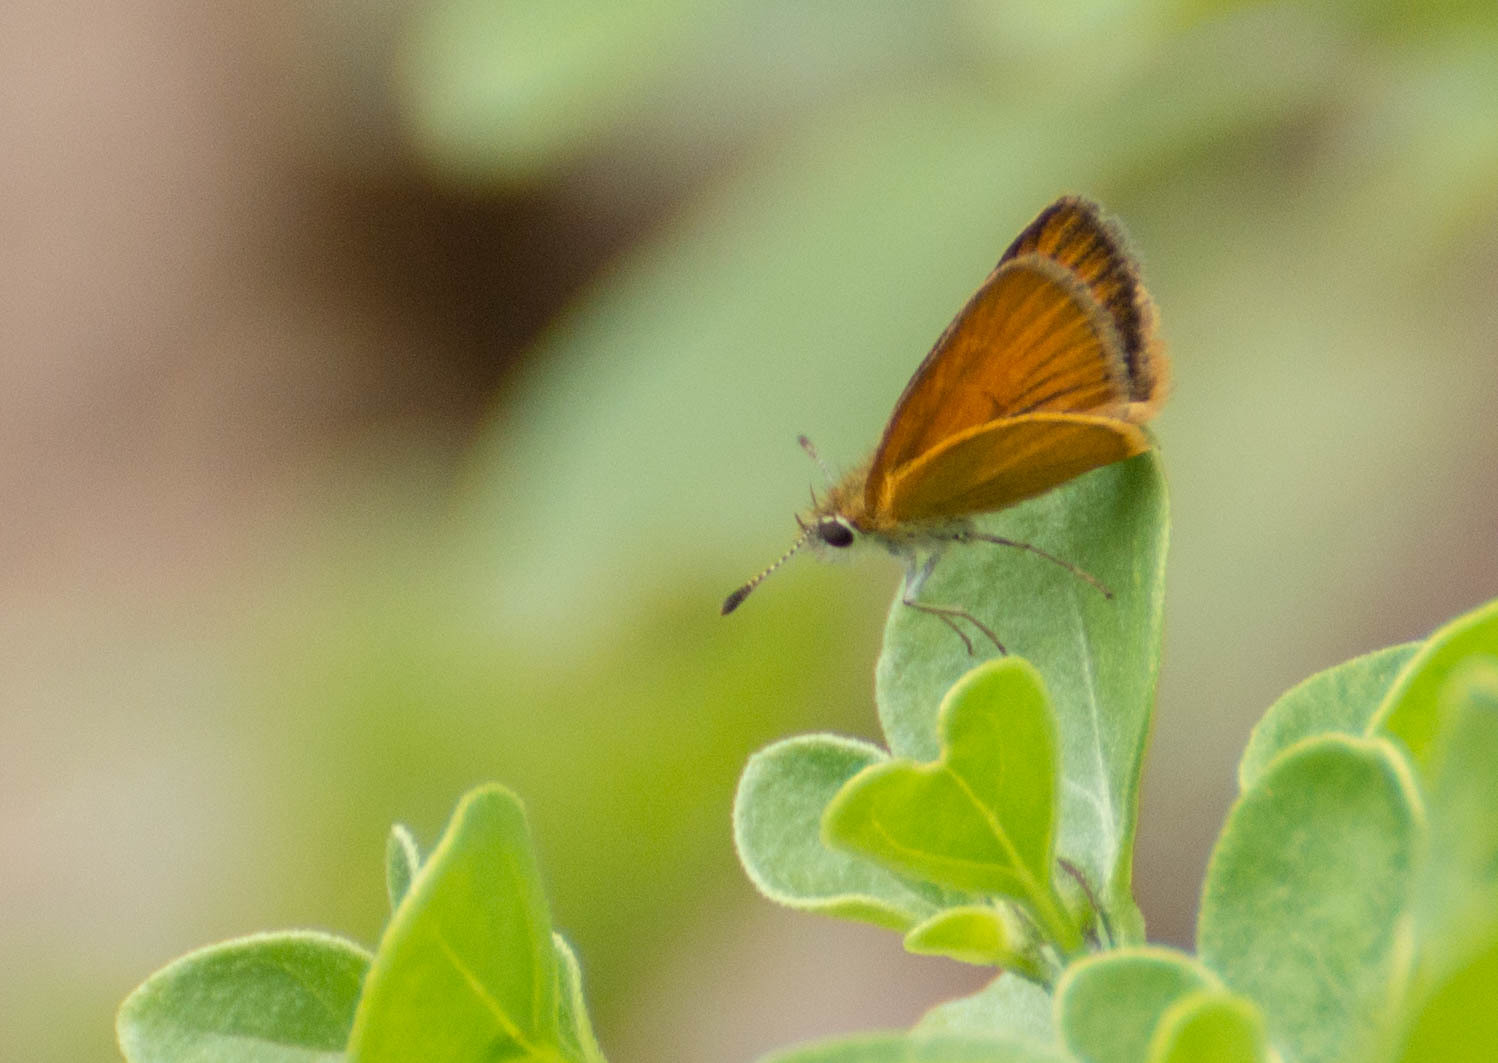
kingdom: Animalia
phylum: Arthropoda
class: Insecta
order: Lepidoptera
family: Hesperiidae
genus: Ancyloxypha
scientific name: Ancyloxypha nitedula
